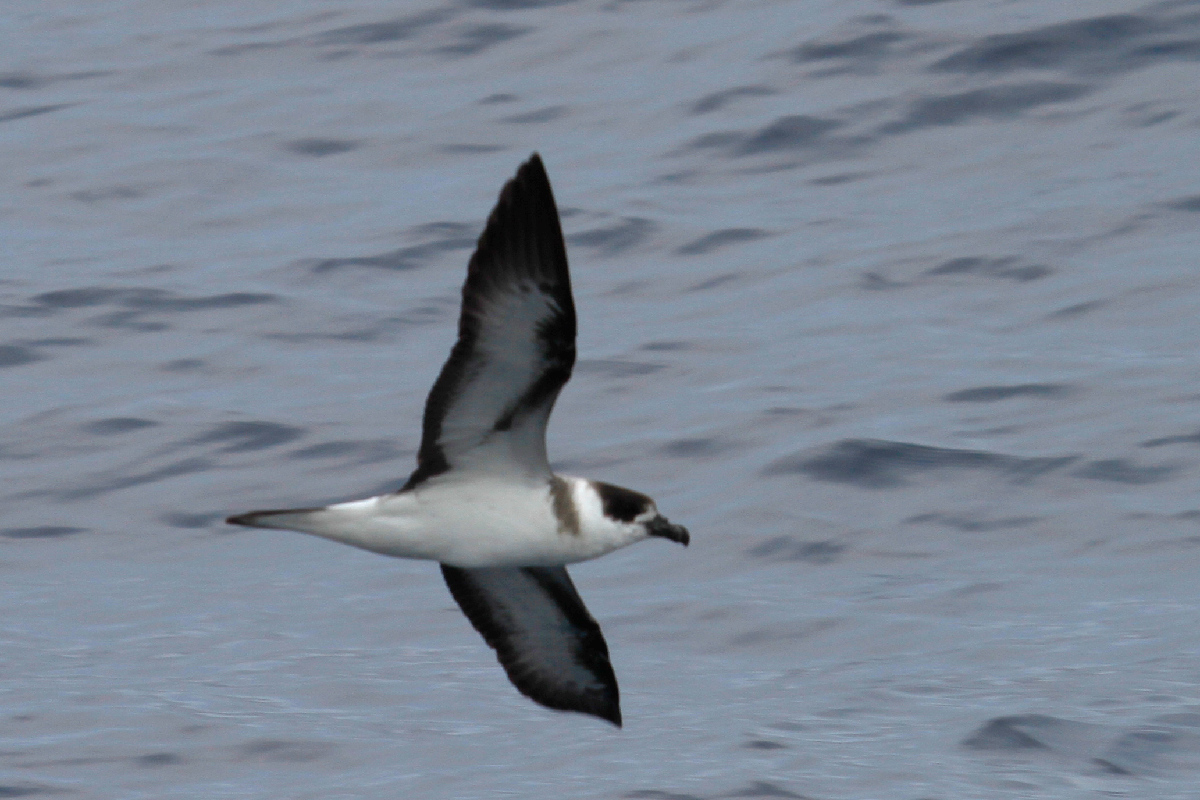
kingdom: Animalia
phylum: Chordata
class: Aves
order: Procellariiformes
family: Procellariidae
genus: Pterodroma
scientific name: Pterodroma hasitata
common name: Black-capped petrel
